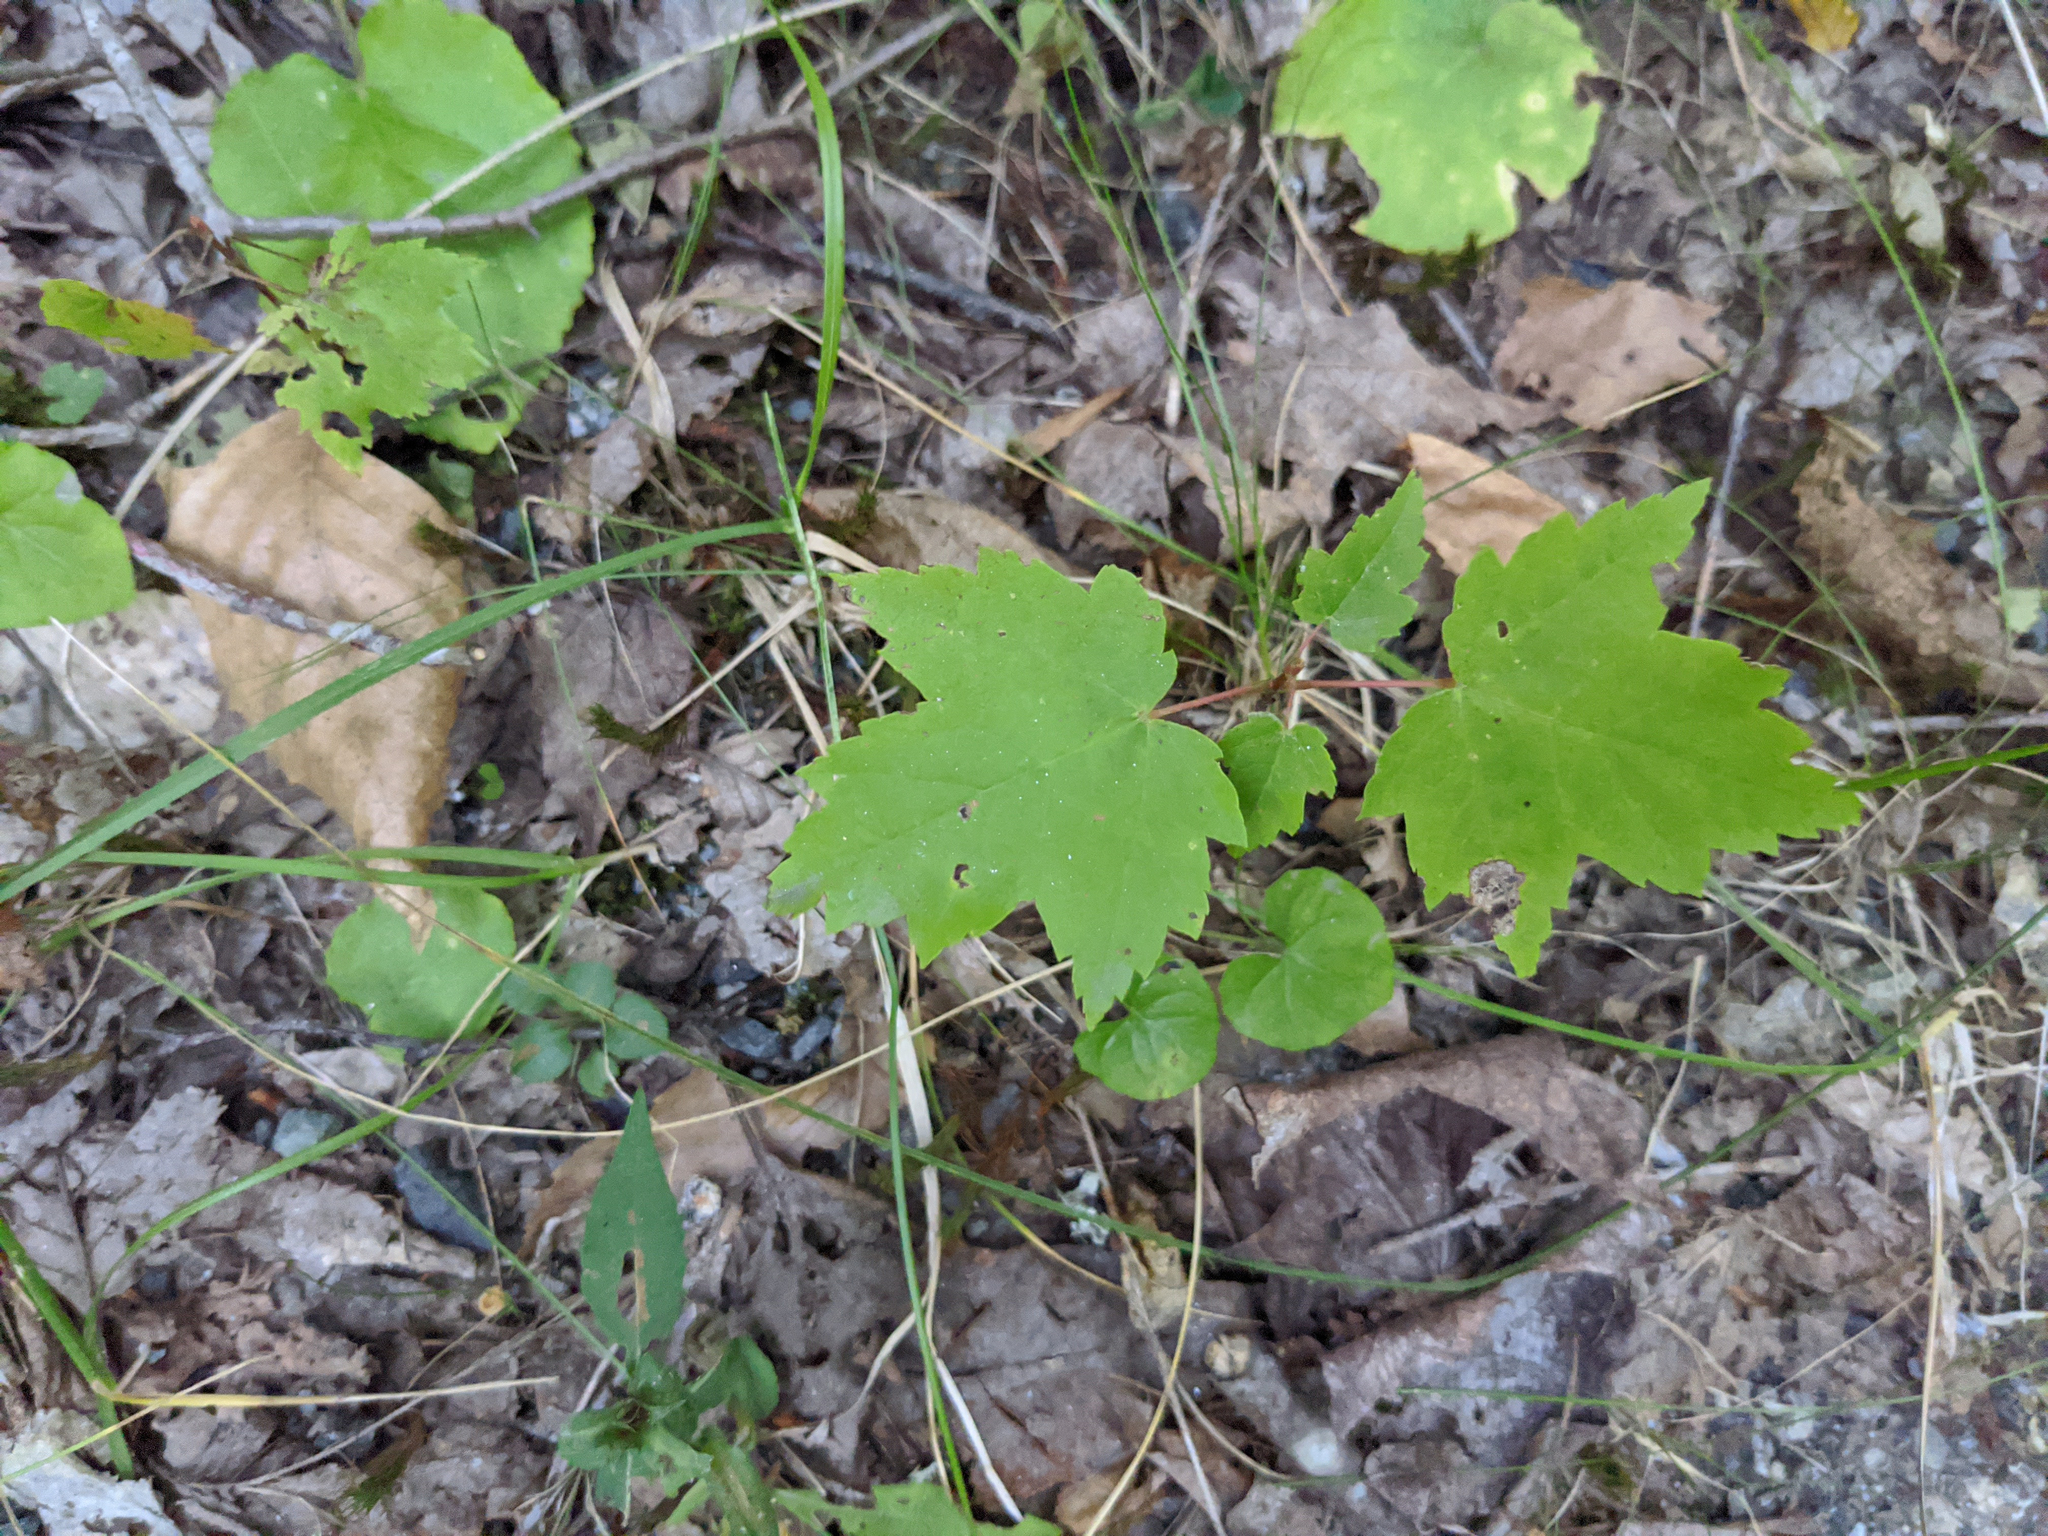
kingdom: Plantae
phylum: Tracheophyta
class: Magnoliopsida
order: Sapindales
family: Sapindaceae
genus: Acer
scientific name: Acer rubrum
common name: Red maple
